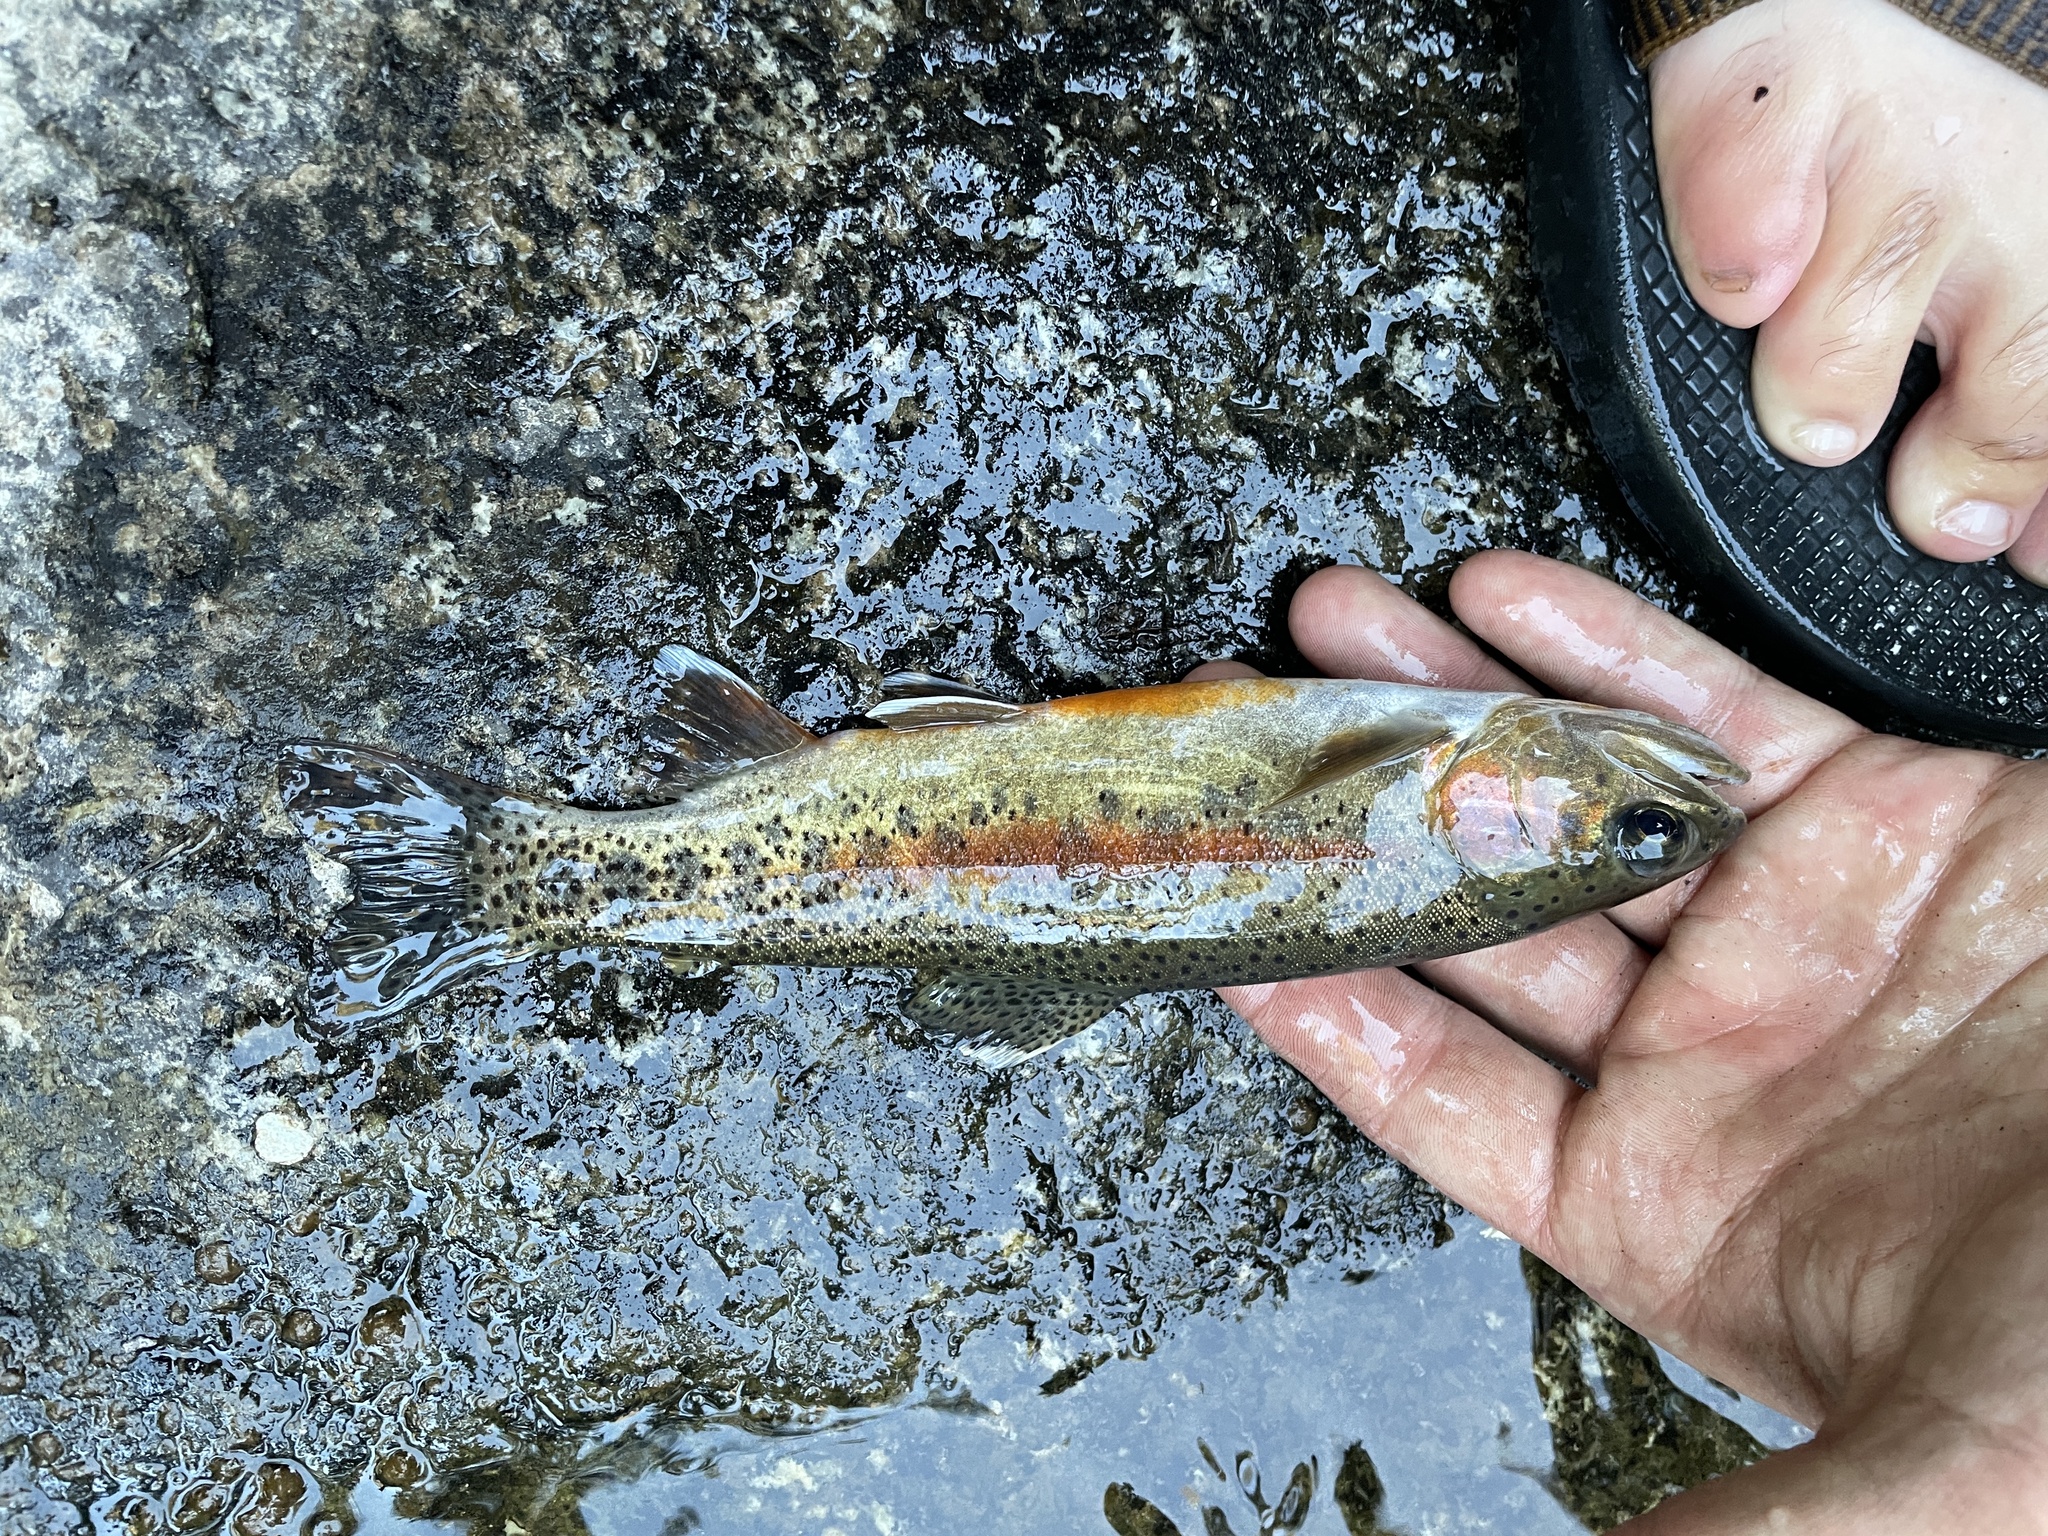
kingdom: Animalia
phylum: Chordata
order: Salmoniformes
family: Salmonidae
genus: Oncorhynchus
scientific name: Oncorhynchus mykiss
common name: Rainbow trout
